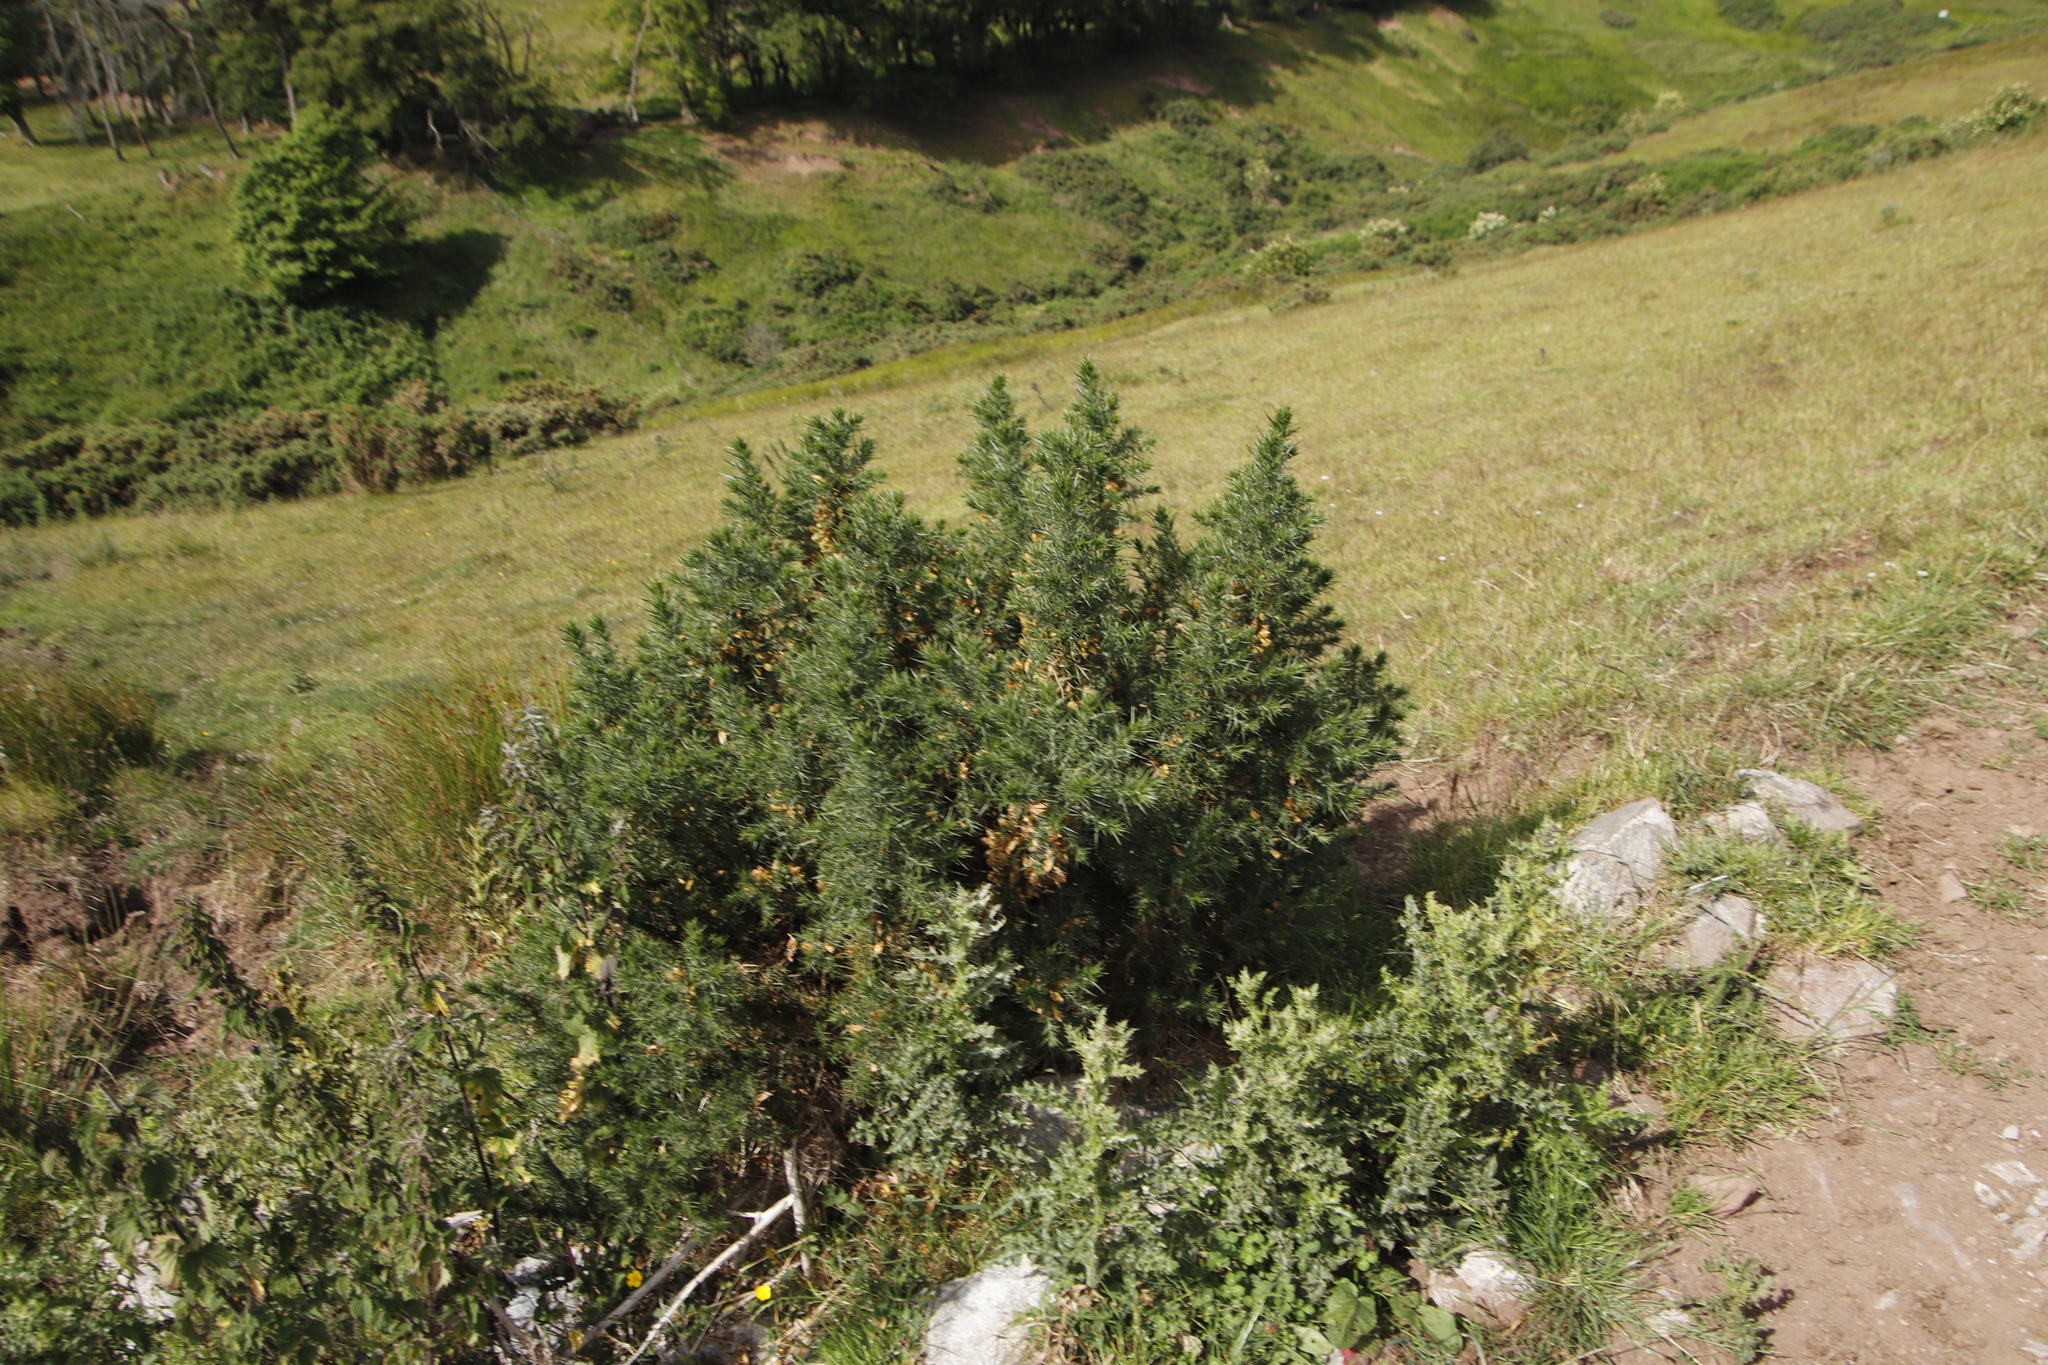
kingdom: Plantae
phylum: Tracheophyta
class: Magnoliopsida
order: Fabales
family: Fabaceae
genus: Ulex
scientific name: Ulex europaeus
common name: Common gorse
